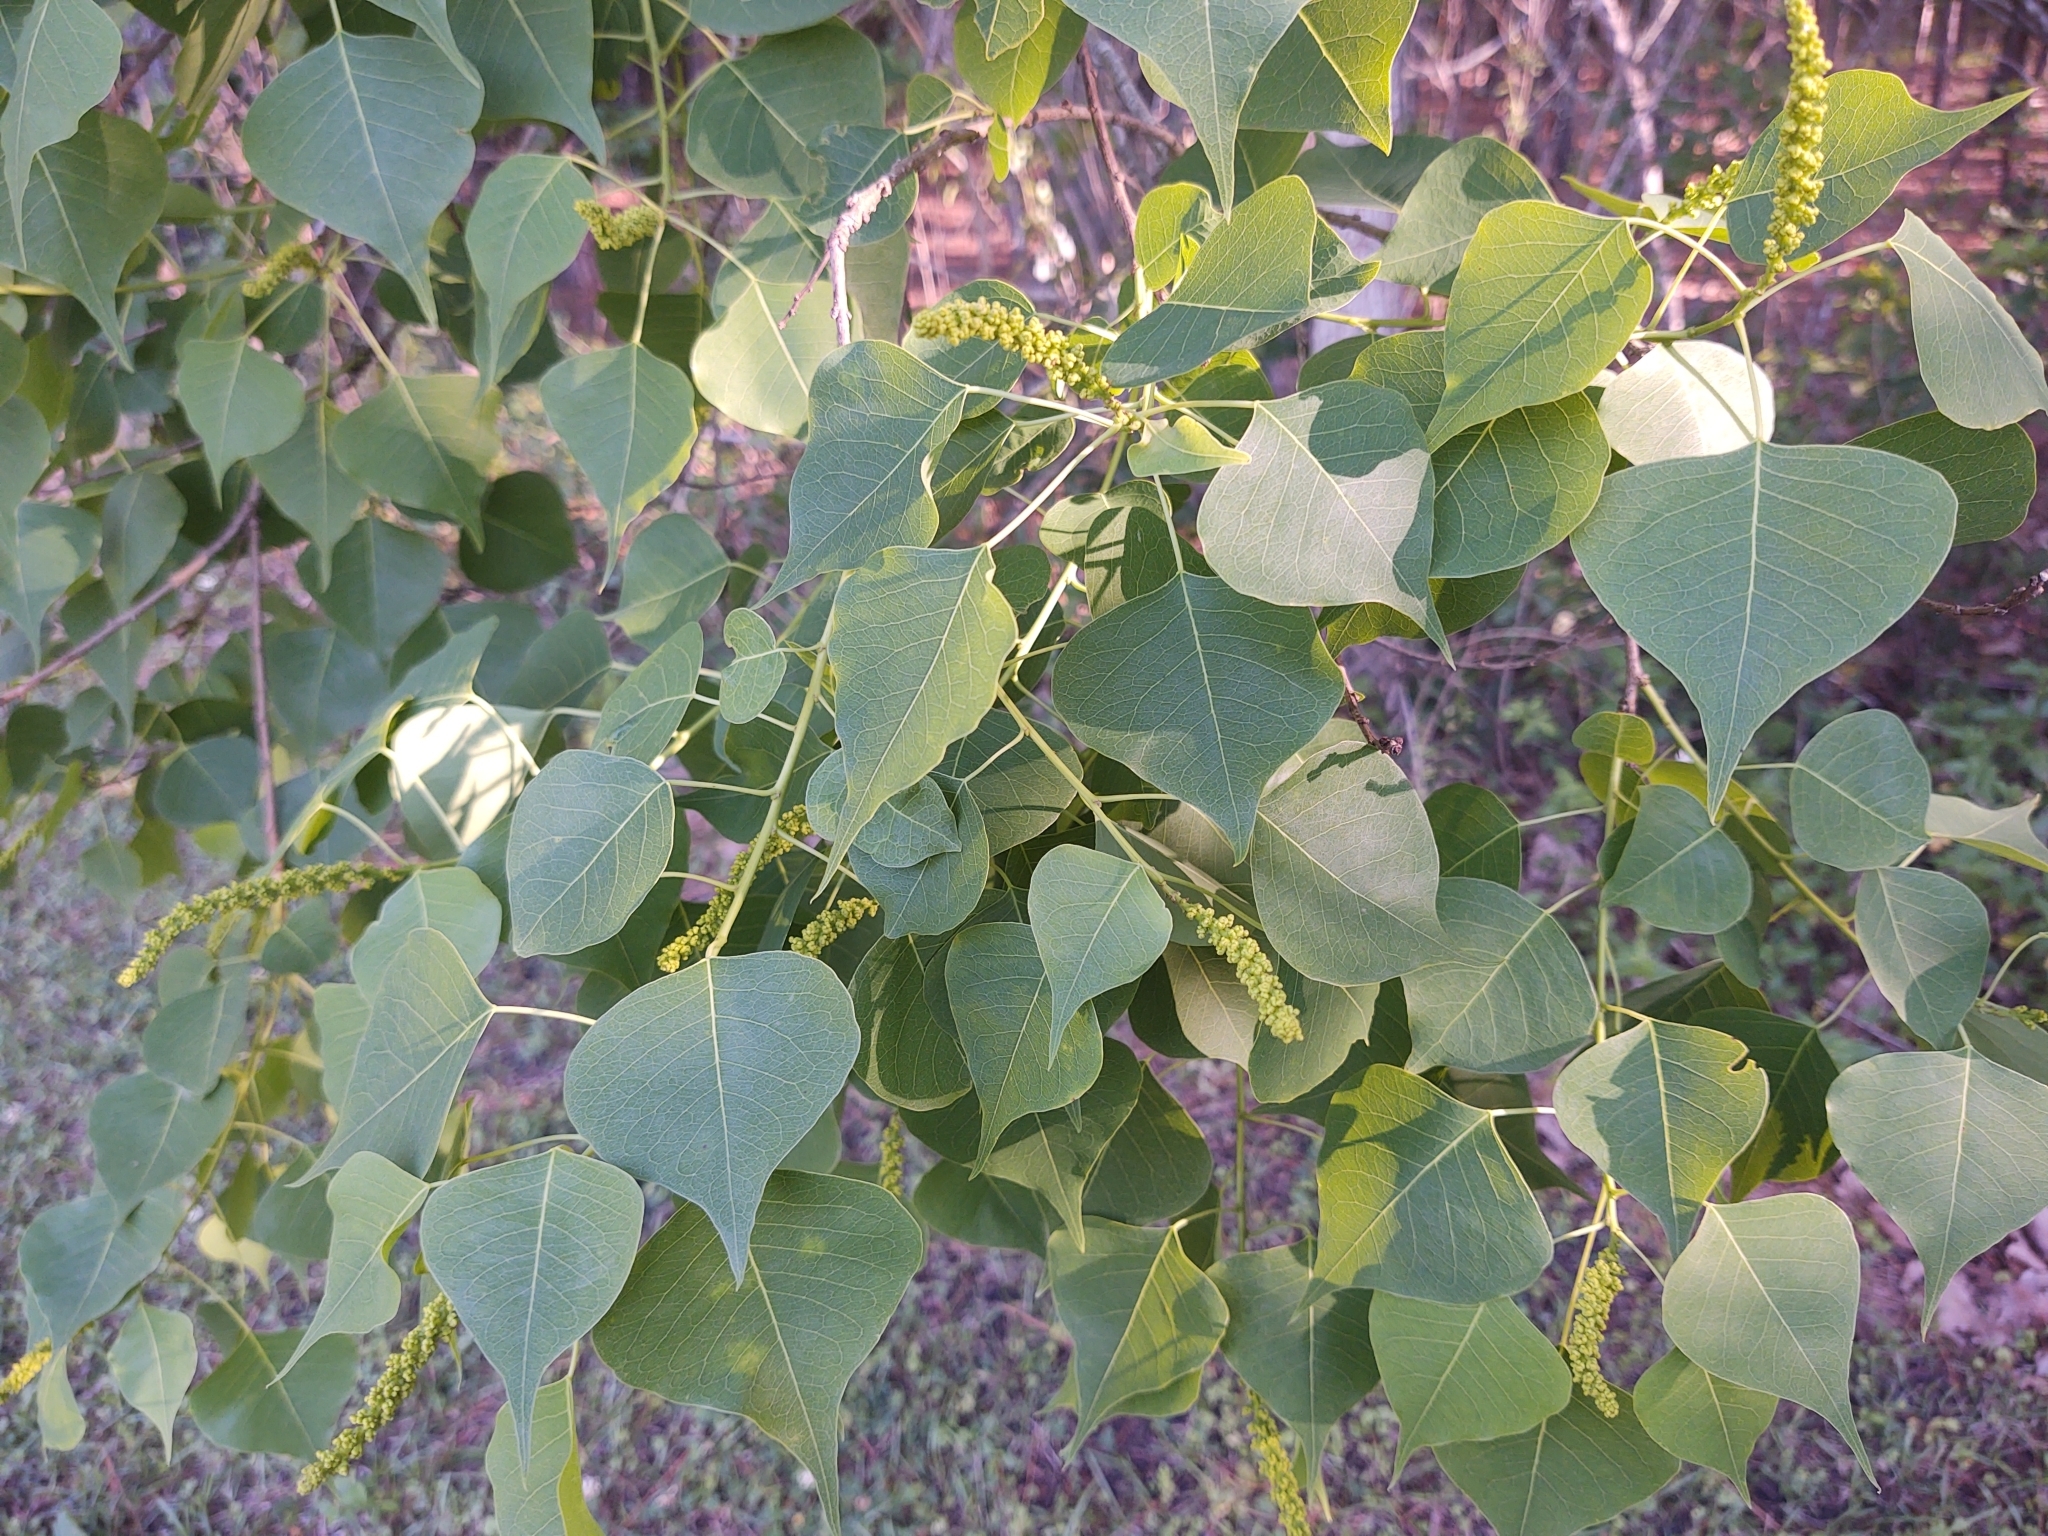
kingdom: Plantae
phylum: Tracheophyta
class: Magnoliopsida
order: Malpighiales
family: Euphorbiaceae
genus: Triadica
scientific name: Triadica sebifera
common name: Chinese tallow
